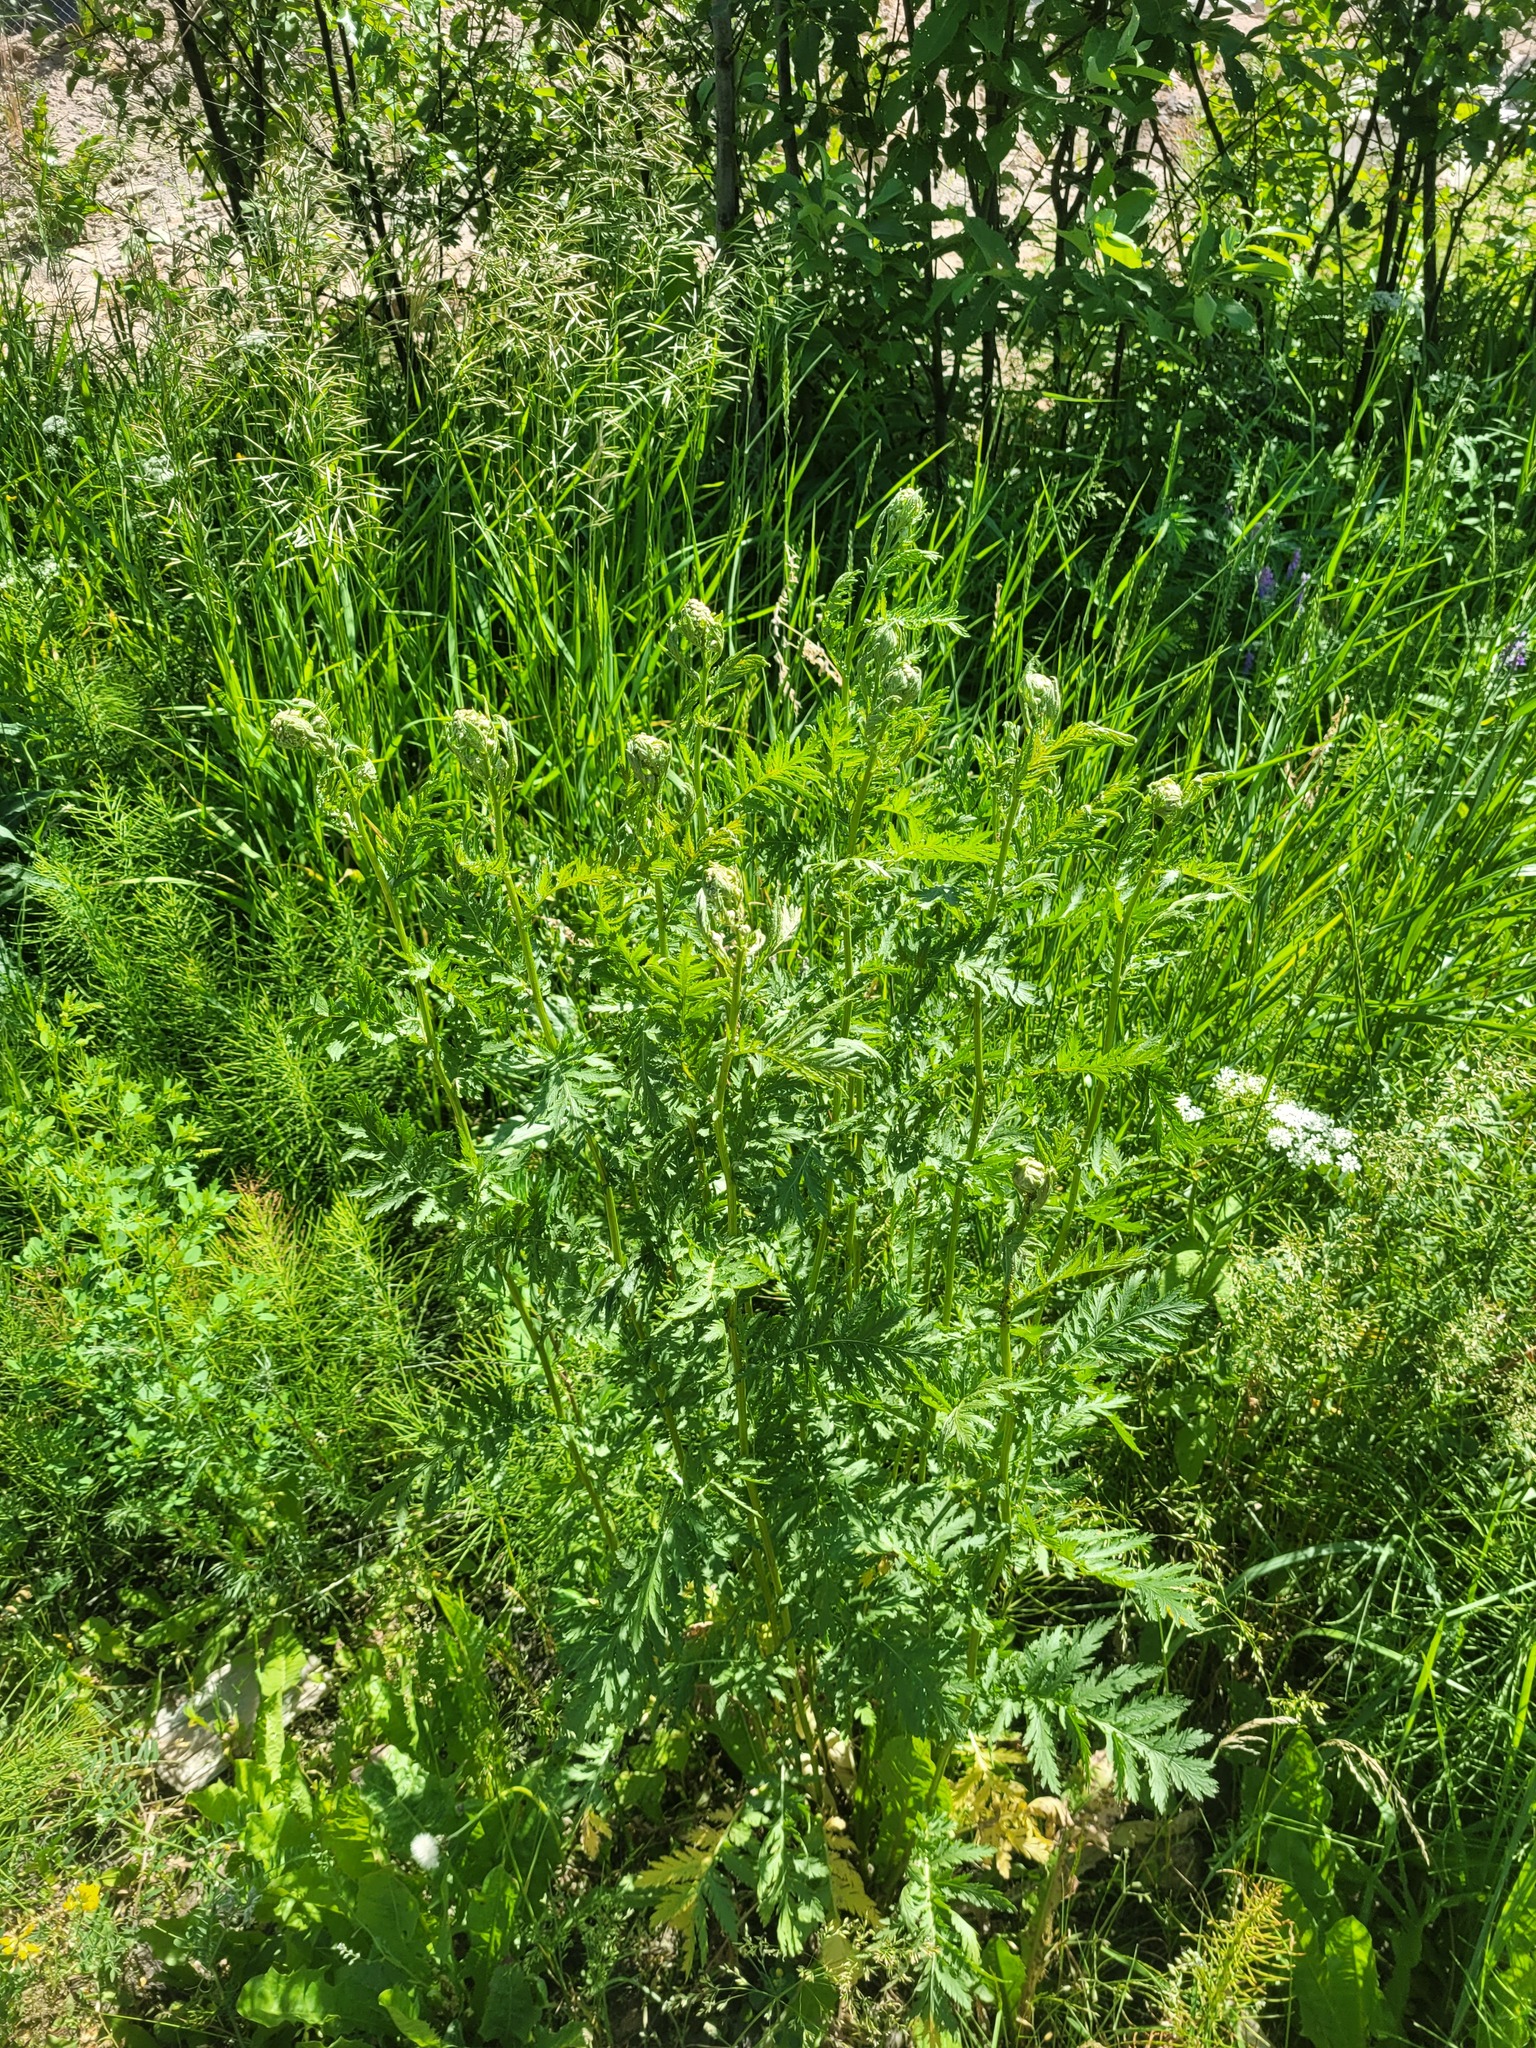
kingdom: Plantae
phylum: Tracheophyta
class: Magnoliopsida
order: Asterales
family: Asteraceae
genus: Tanacetum
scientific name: Tanacetum vulgare
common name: Common tansy
